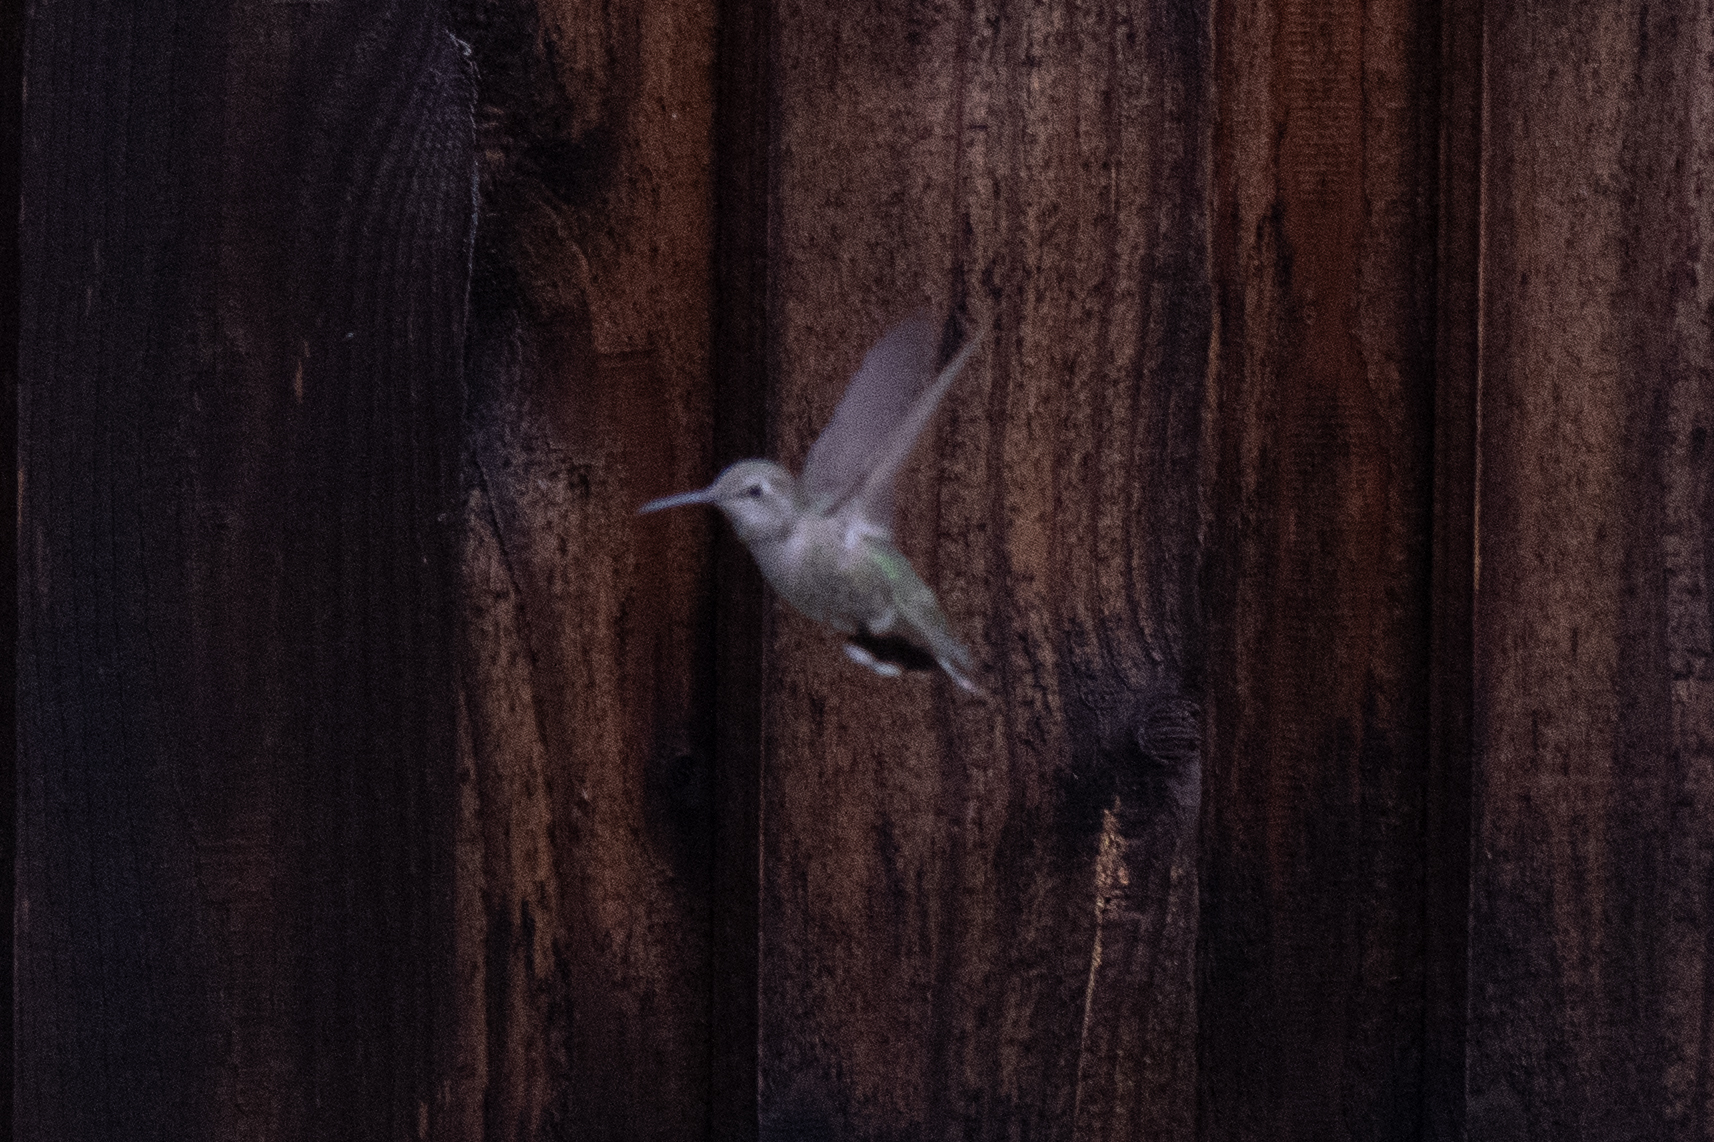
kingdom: Animalia
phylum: Chordata
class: Aves
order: Apodiformes
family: Trochilidae
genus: Calypte
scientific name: Calypte anna
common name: Anna's hummingbird
